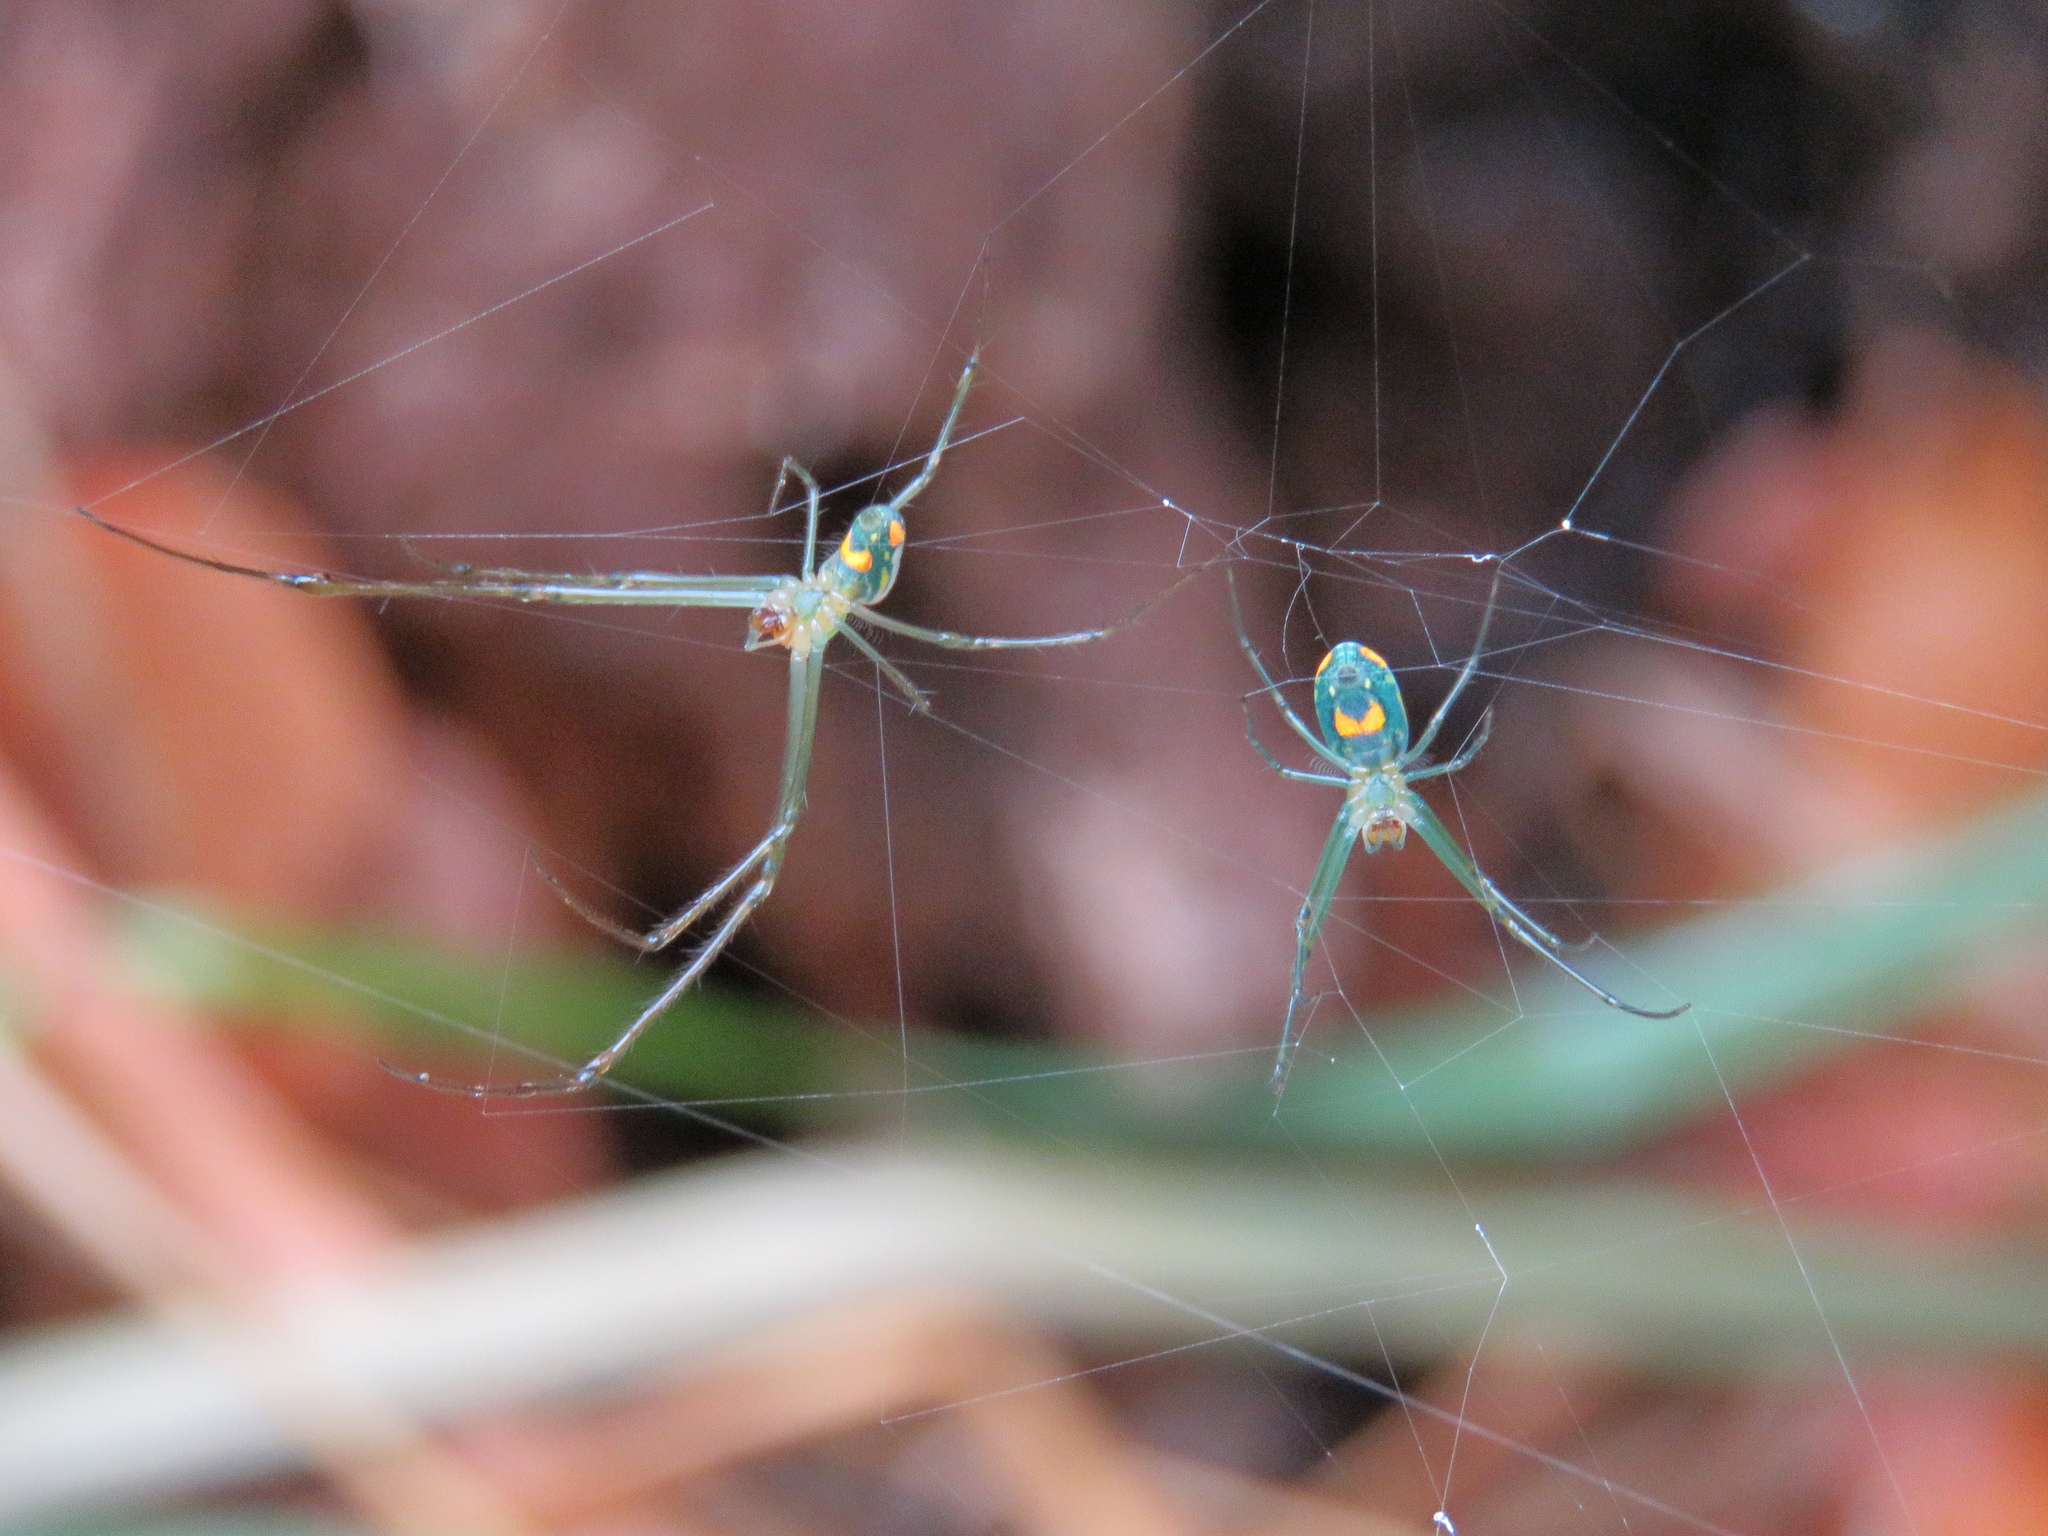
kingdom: Animalia
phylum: Arthropoda
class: Arachnida
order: Araneae
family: Tetragnathidae
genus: Leucauge
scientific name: Leucauge venusta
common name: Longjawed orb weavers
